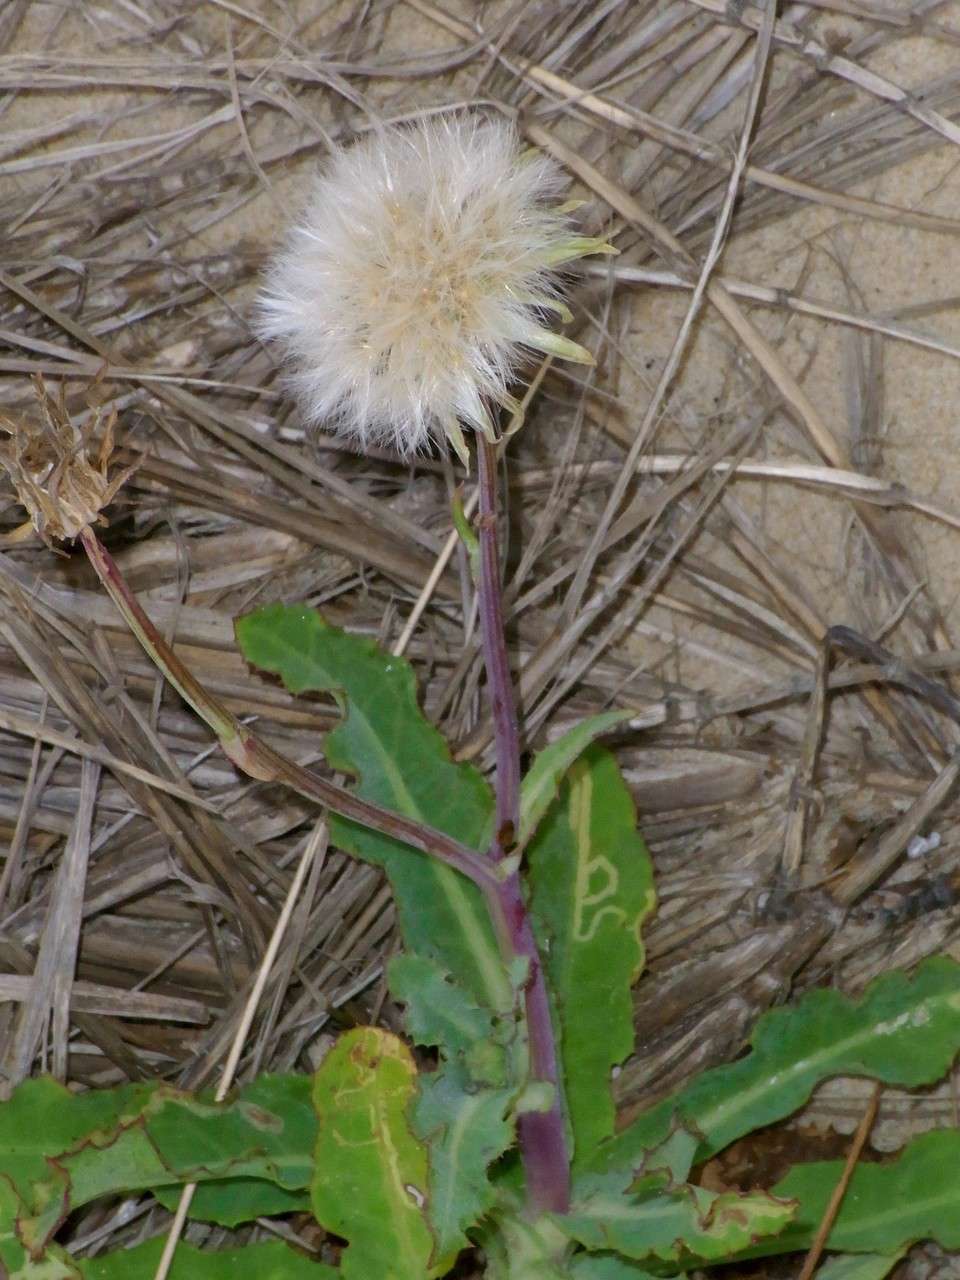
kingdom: Plantae
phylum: Tracheophyta
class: Magnoliopsida
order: Asterales
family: Asteraceae
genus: Sonchus
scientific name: Sonchus megalocarpus
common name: Dune thistle
